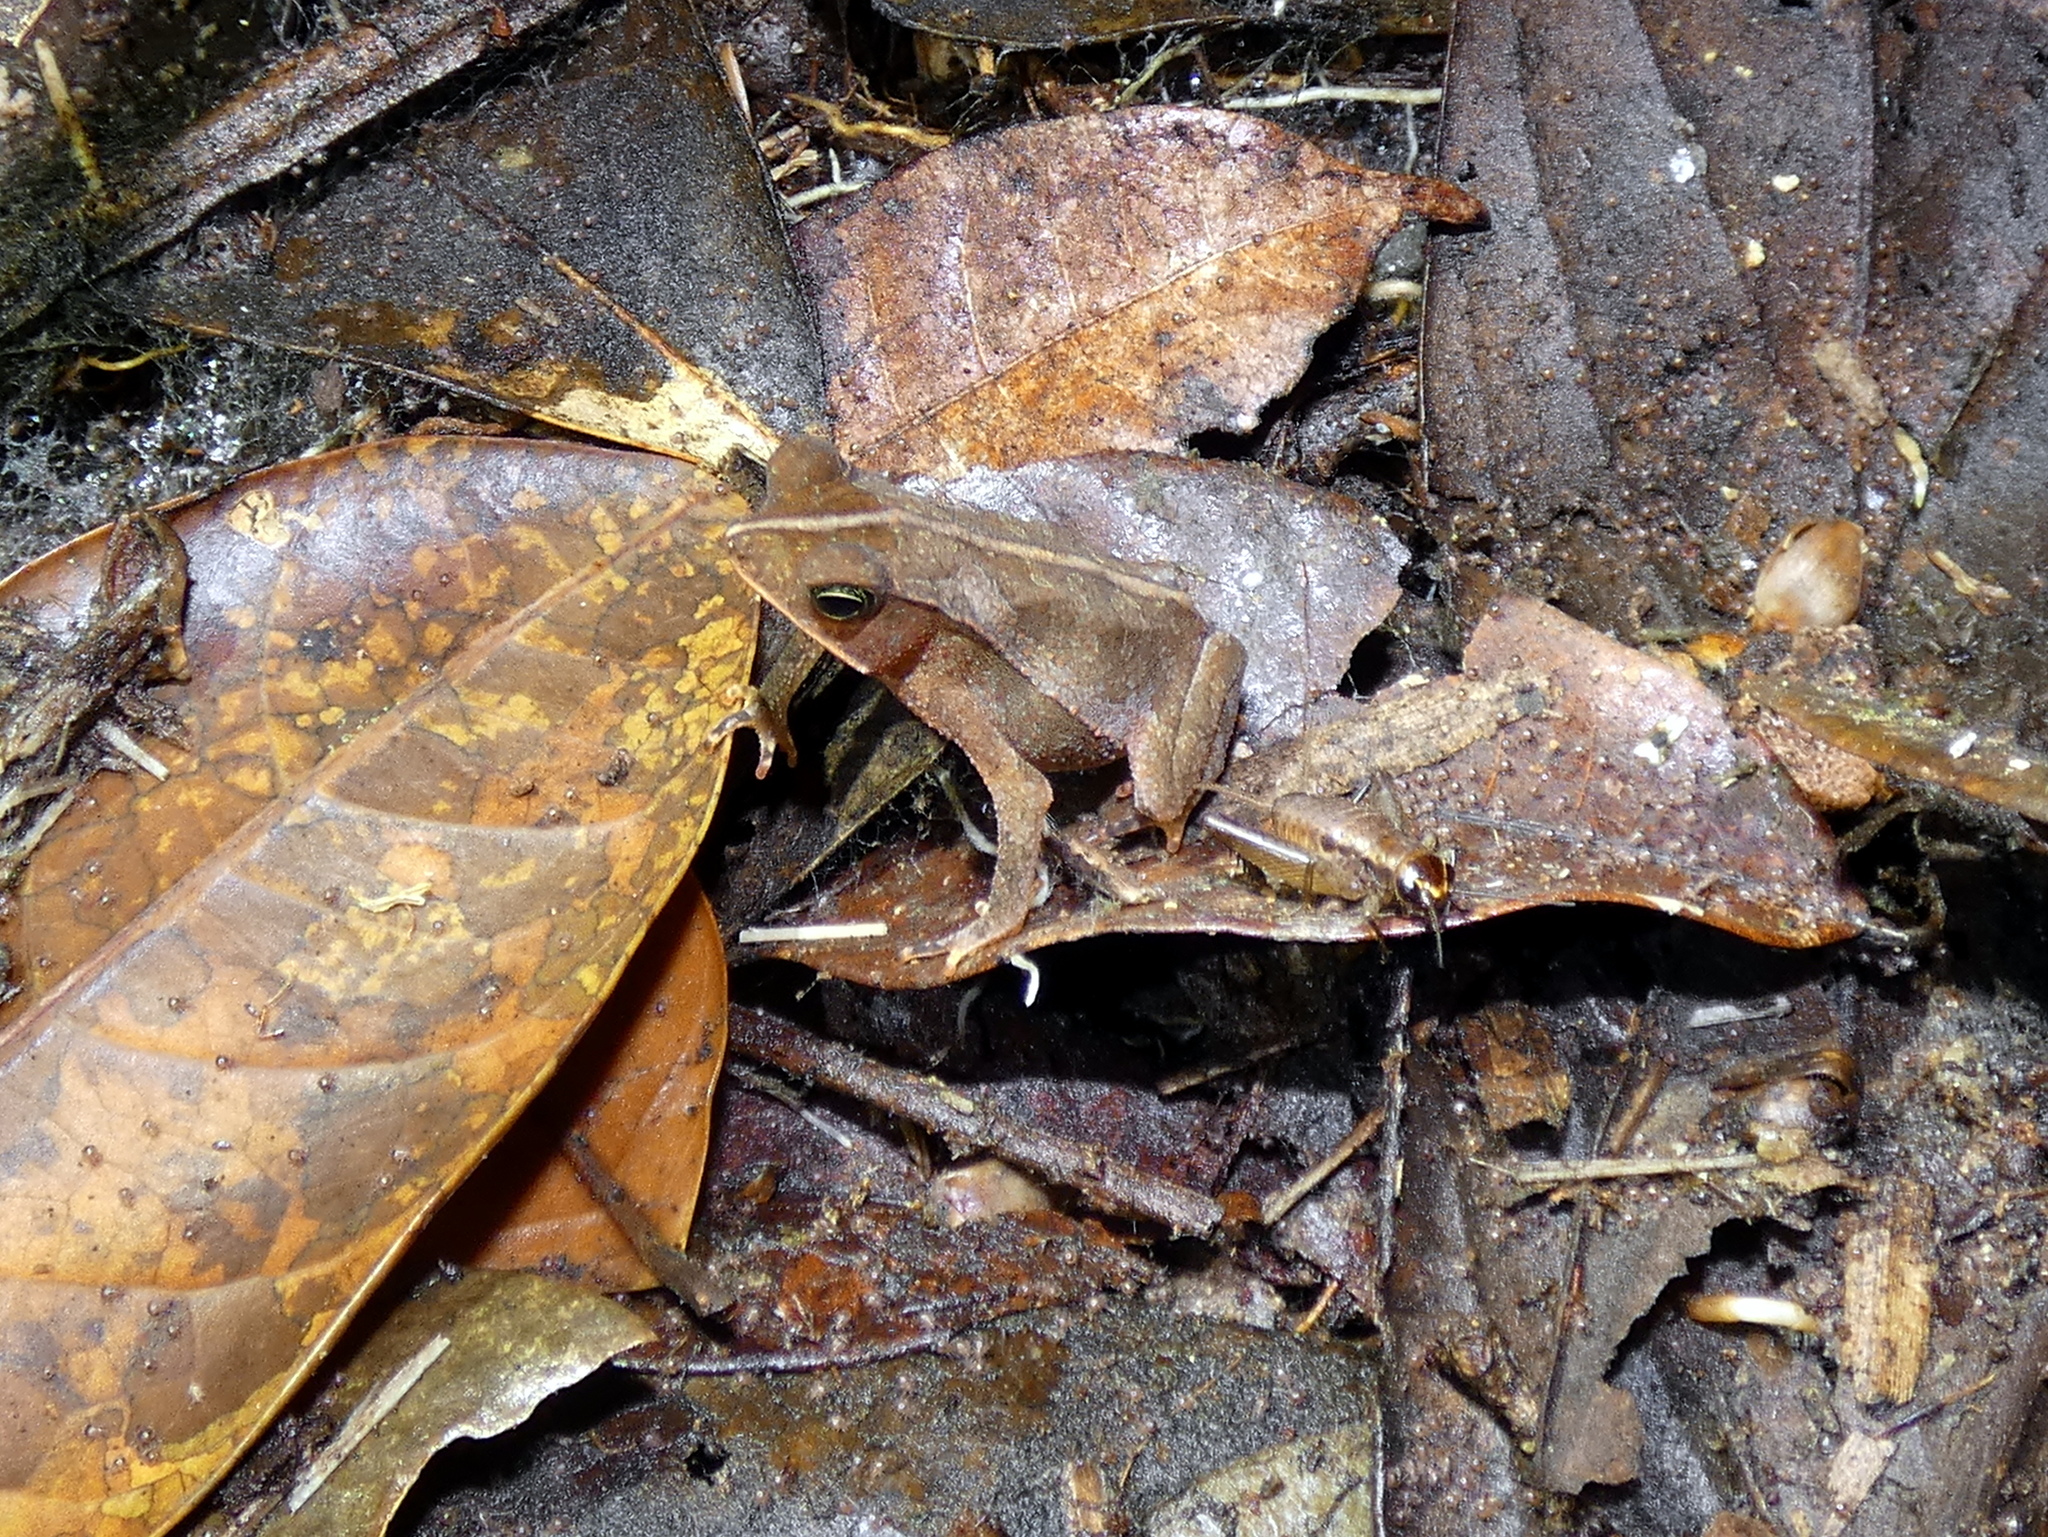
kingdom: Animalia
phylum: Chordata
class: Amphibia
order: Anura
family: Bufonidae
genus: Rhinella
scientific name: Rhinella margaritifera
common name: Mitred toad
